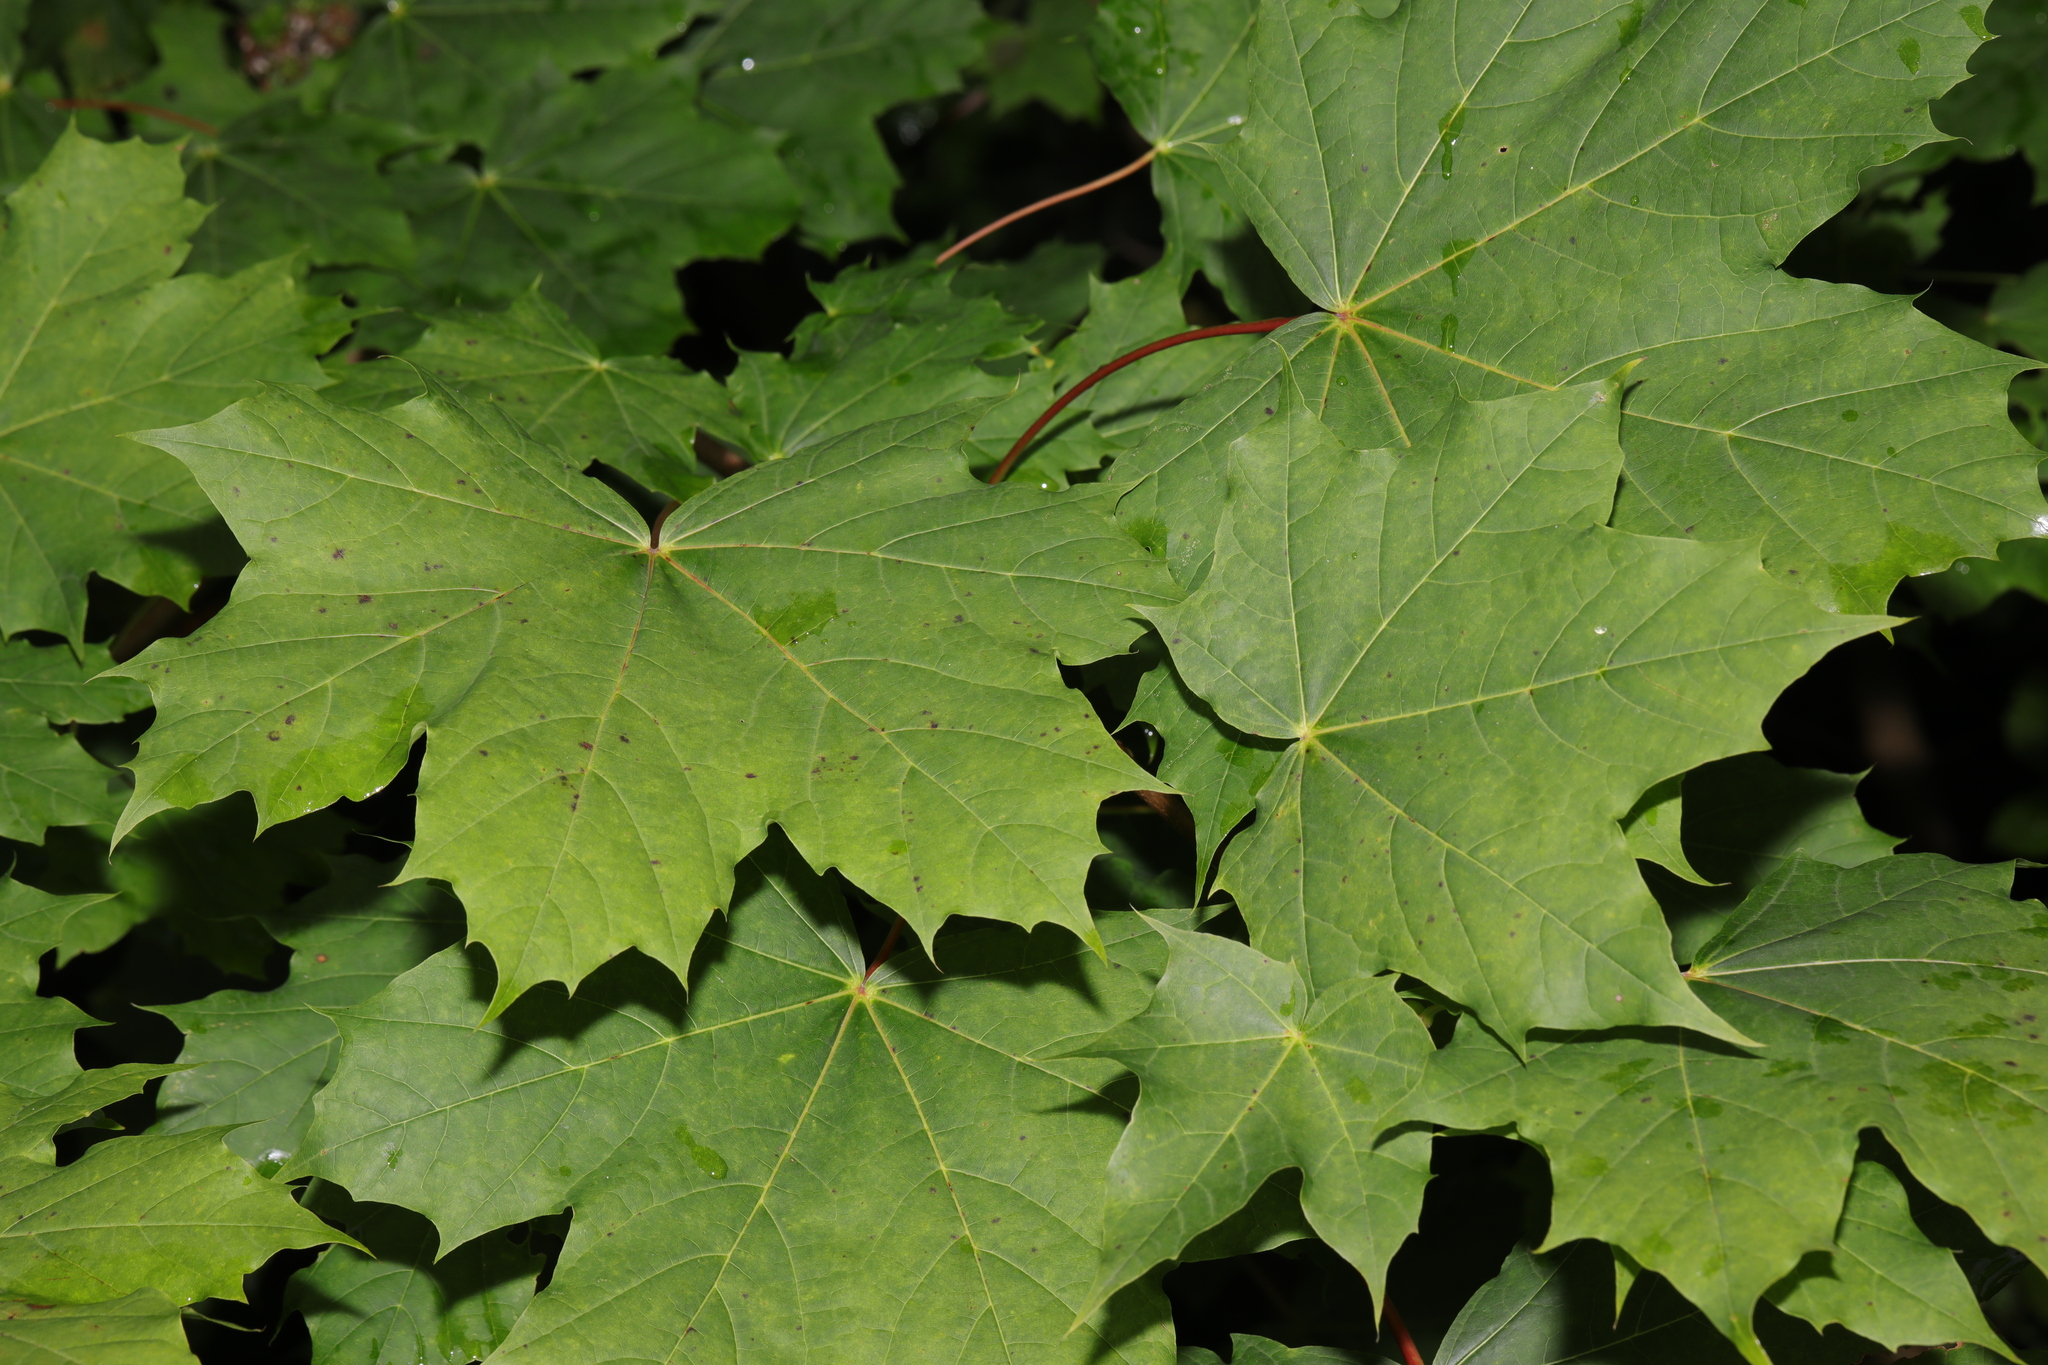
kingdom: Plantae
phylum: Tracheophyta
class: Magnoliopsida
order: Sapindales
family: Sapindaceae
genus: Acer
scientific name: Acer platanoides
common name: Norway maple
